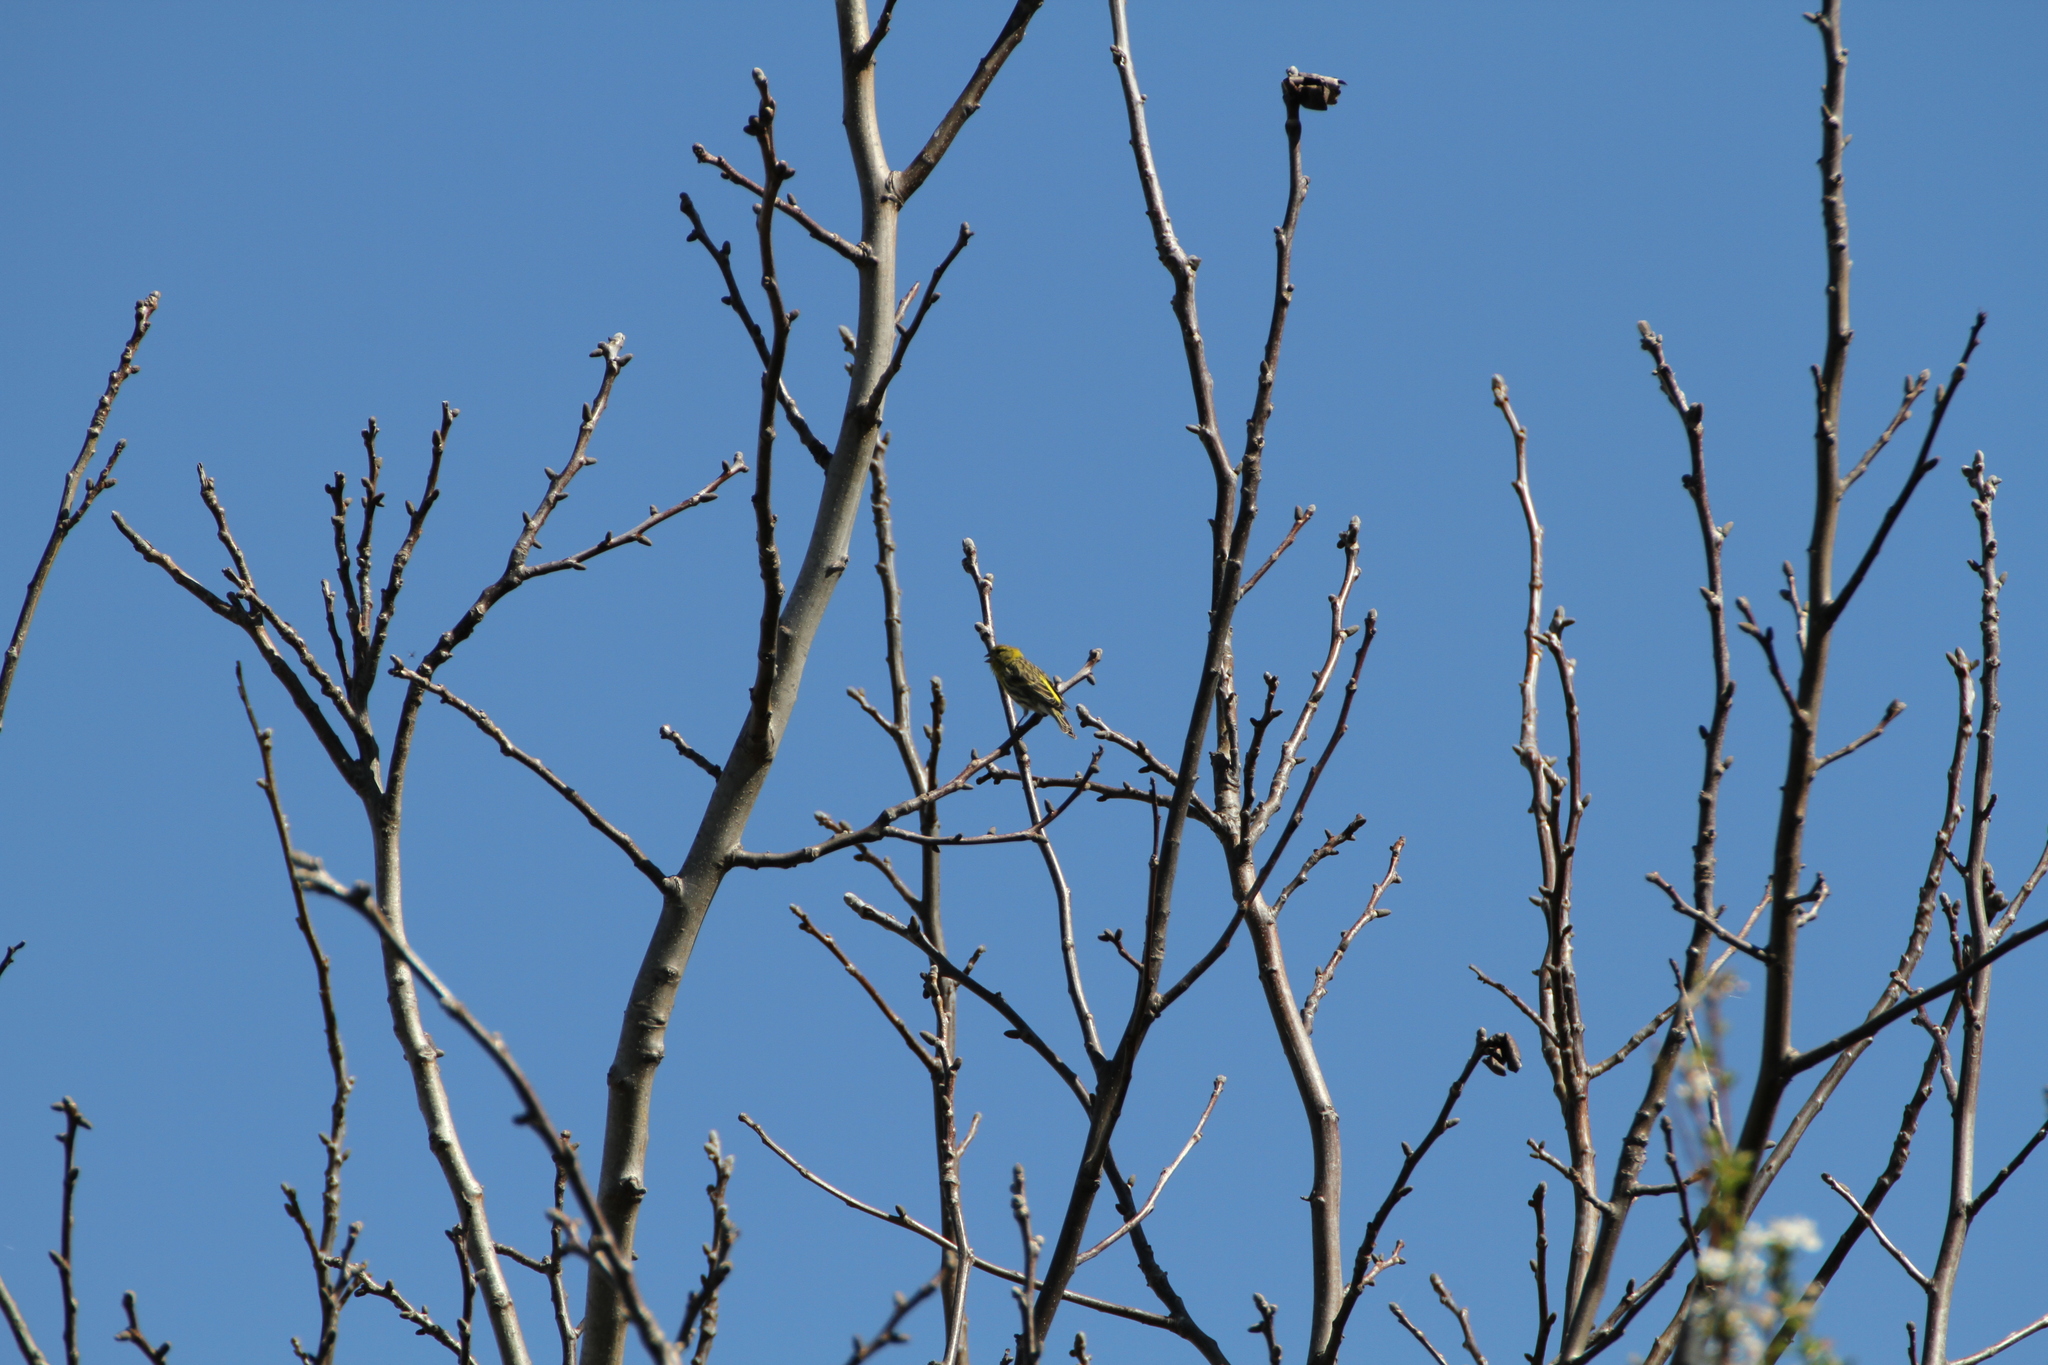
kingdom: Animalia
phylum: Chordata
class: Aves
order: Passeriformes
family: Fringillidae
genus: Serinus
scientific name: Serinus serinus
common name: European serin
